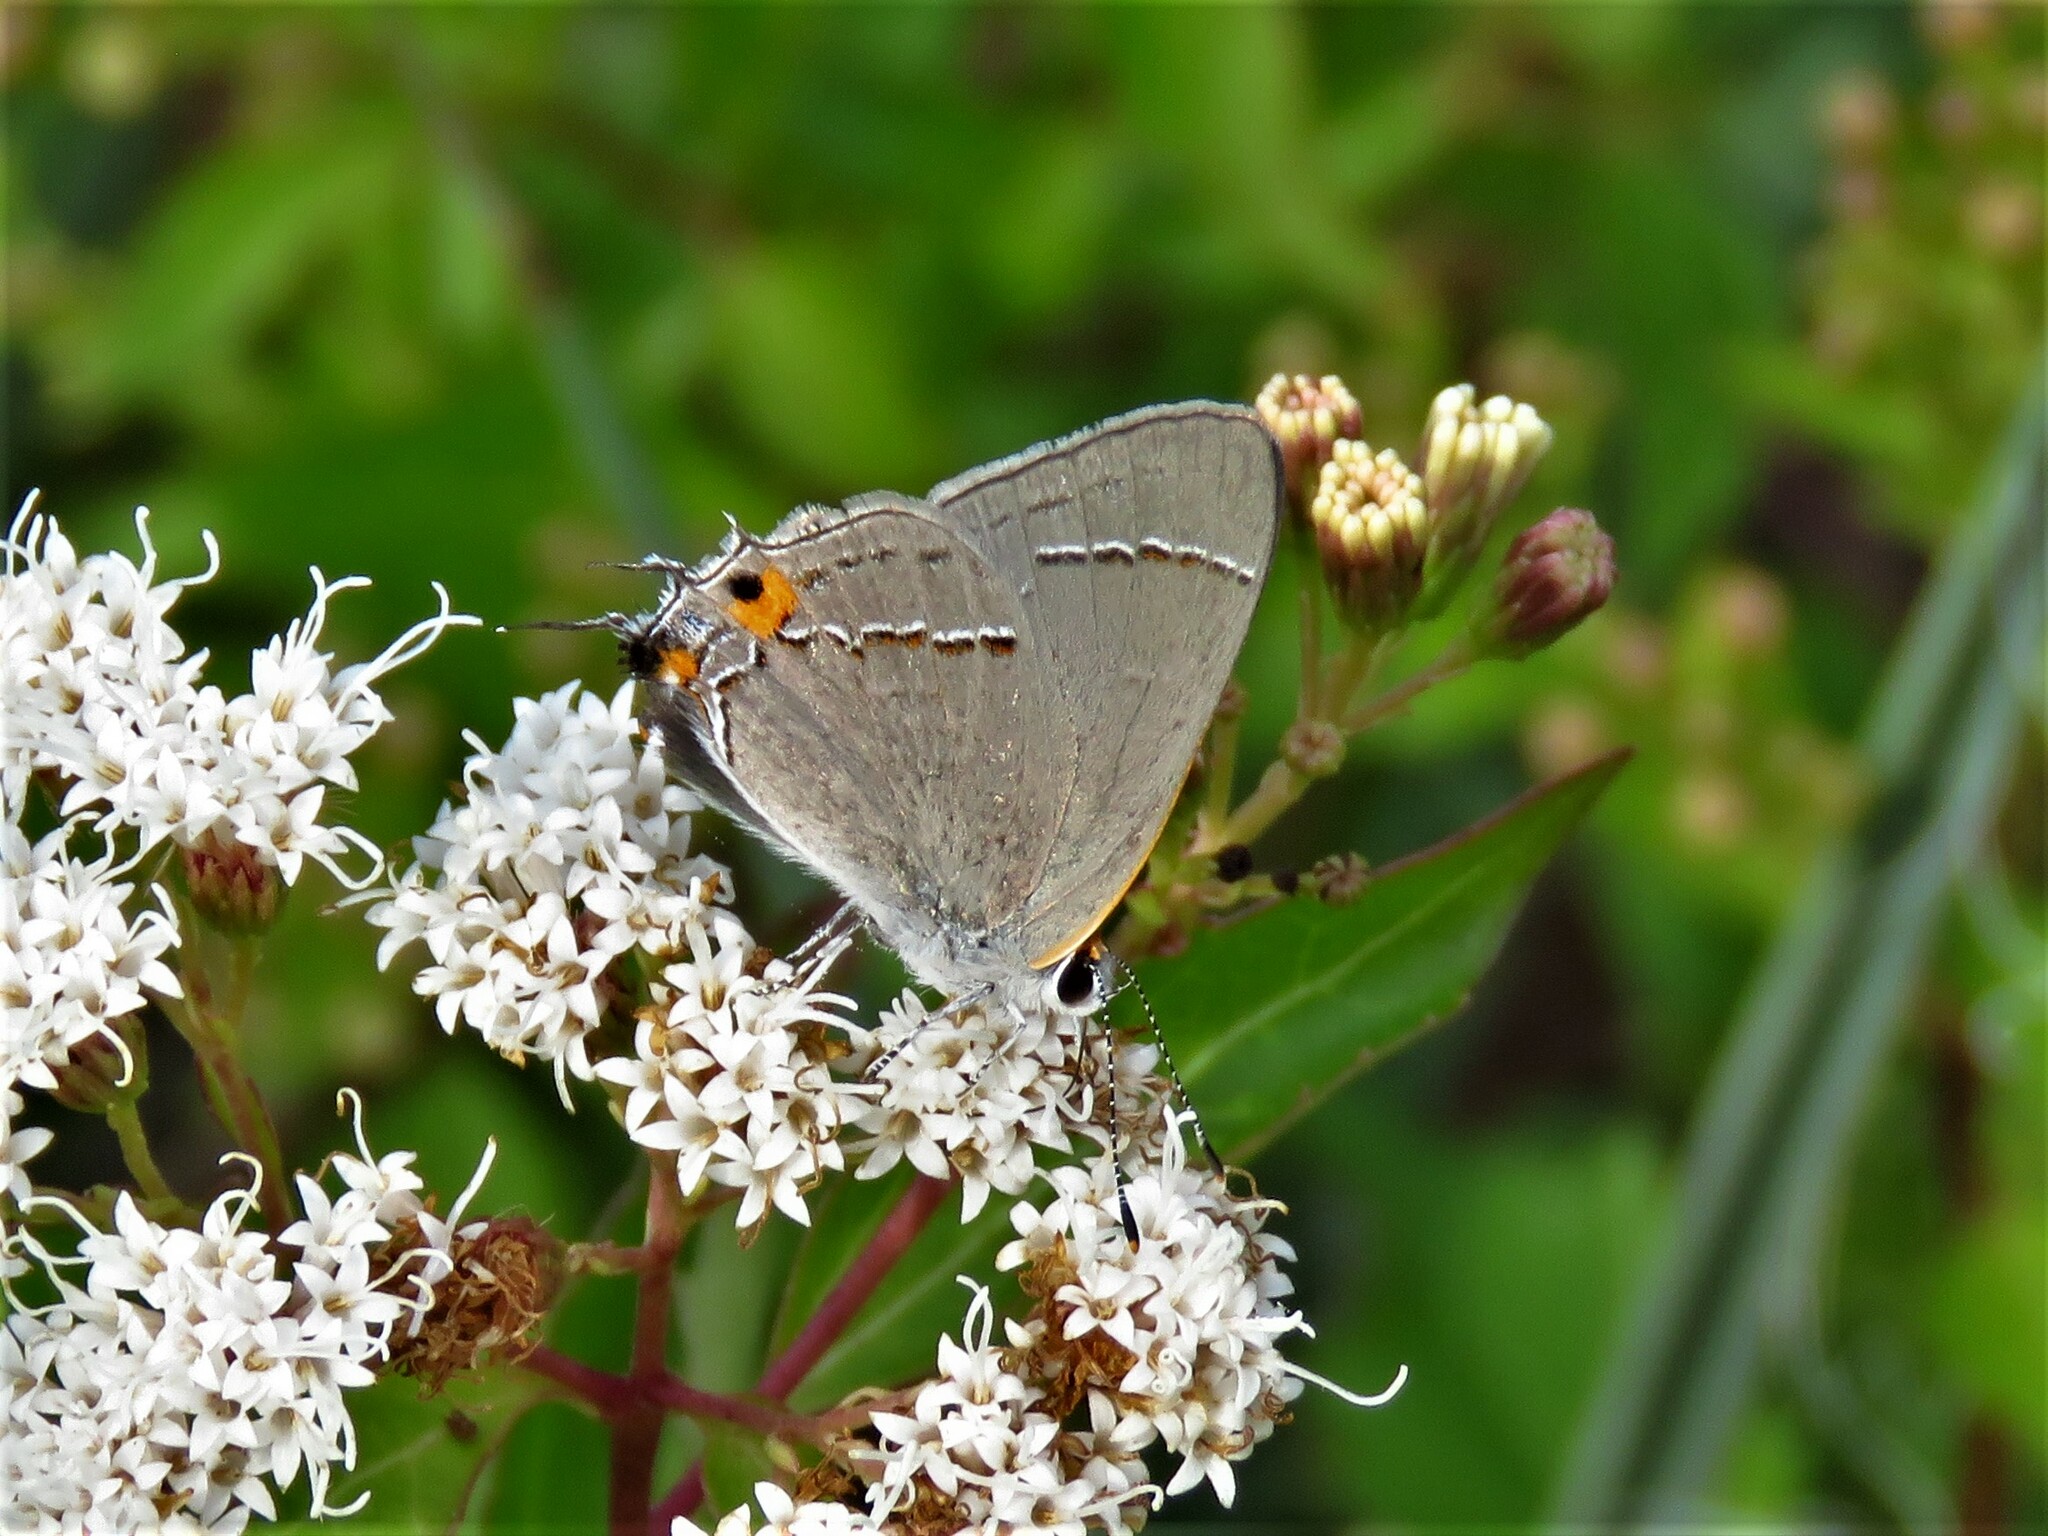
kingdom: Animalia
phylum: Arthropoda
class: Insecta
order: Lepidoptera
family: Lycaenidae
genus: Strymon
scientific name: Strymon melinus
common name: Gray hairstreak
